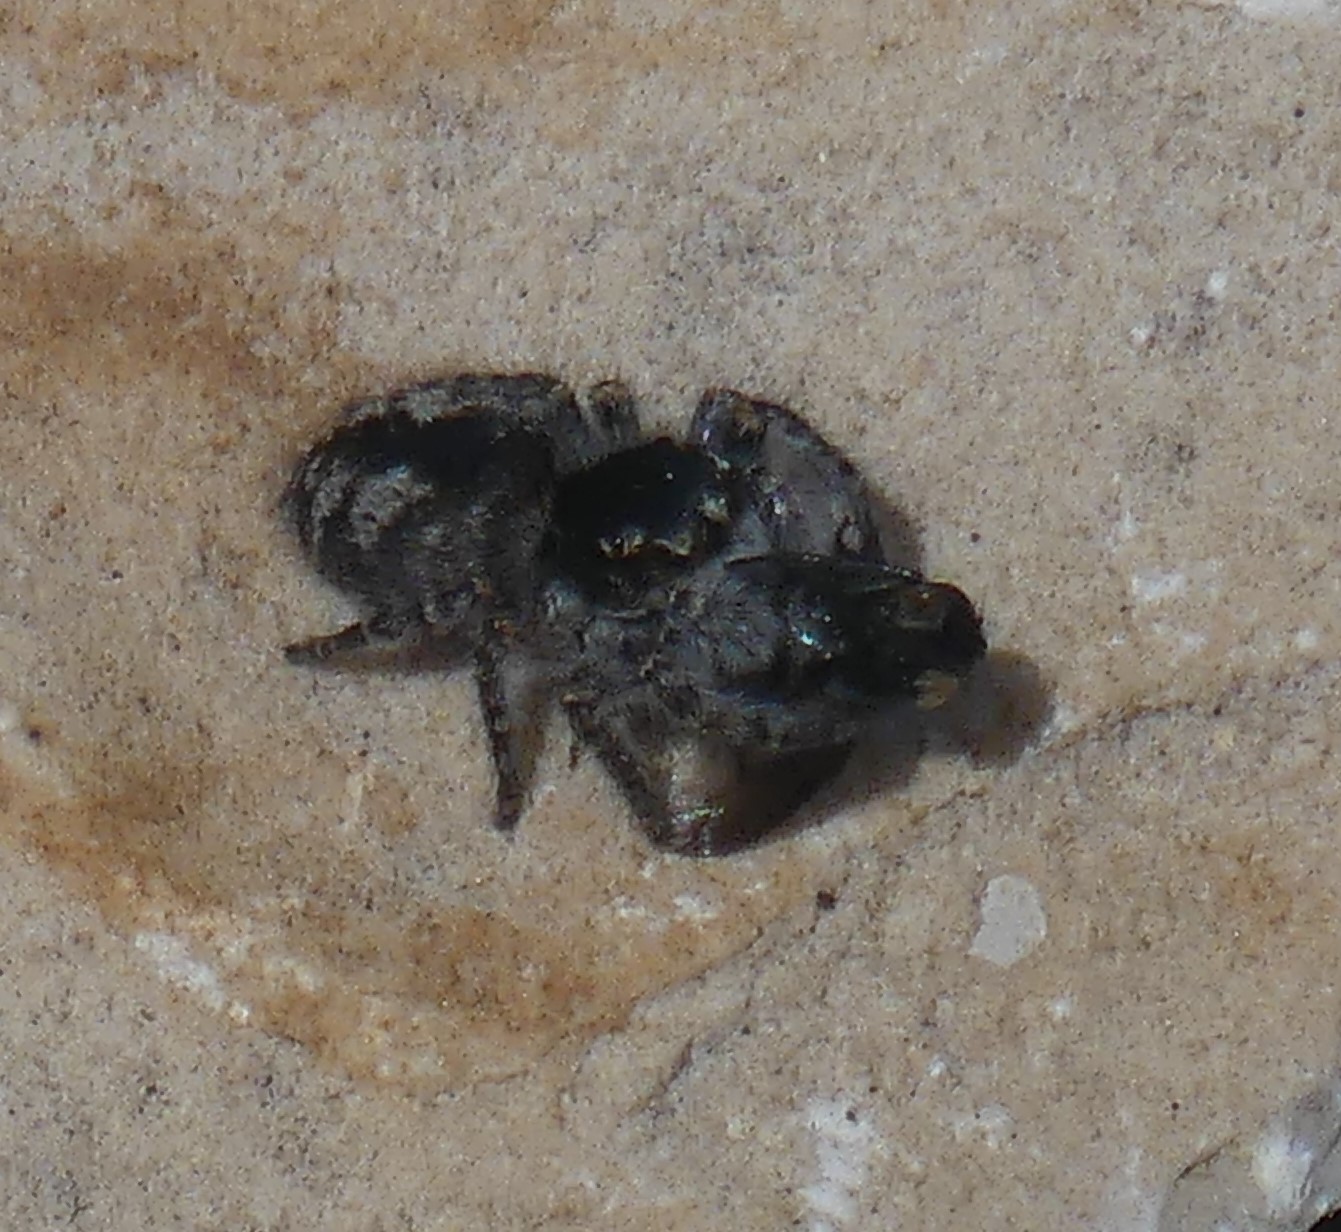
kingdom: Animalia
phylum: Arthropoda
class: Arachnida
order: Araneae
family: Salticidae
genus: Philaeus
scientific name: Philaeus chrysops
